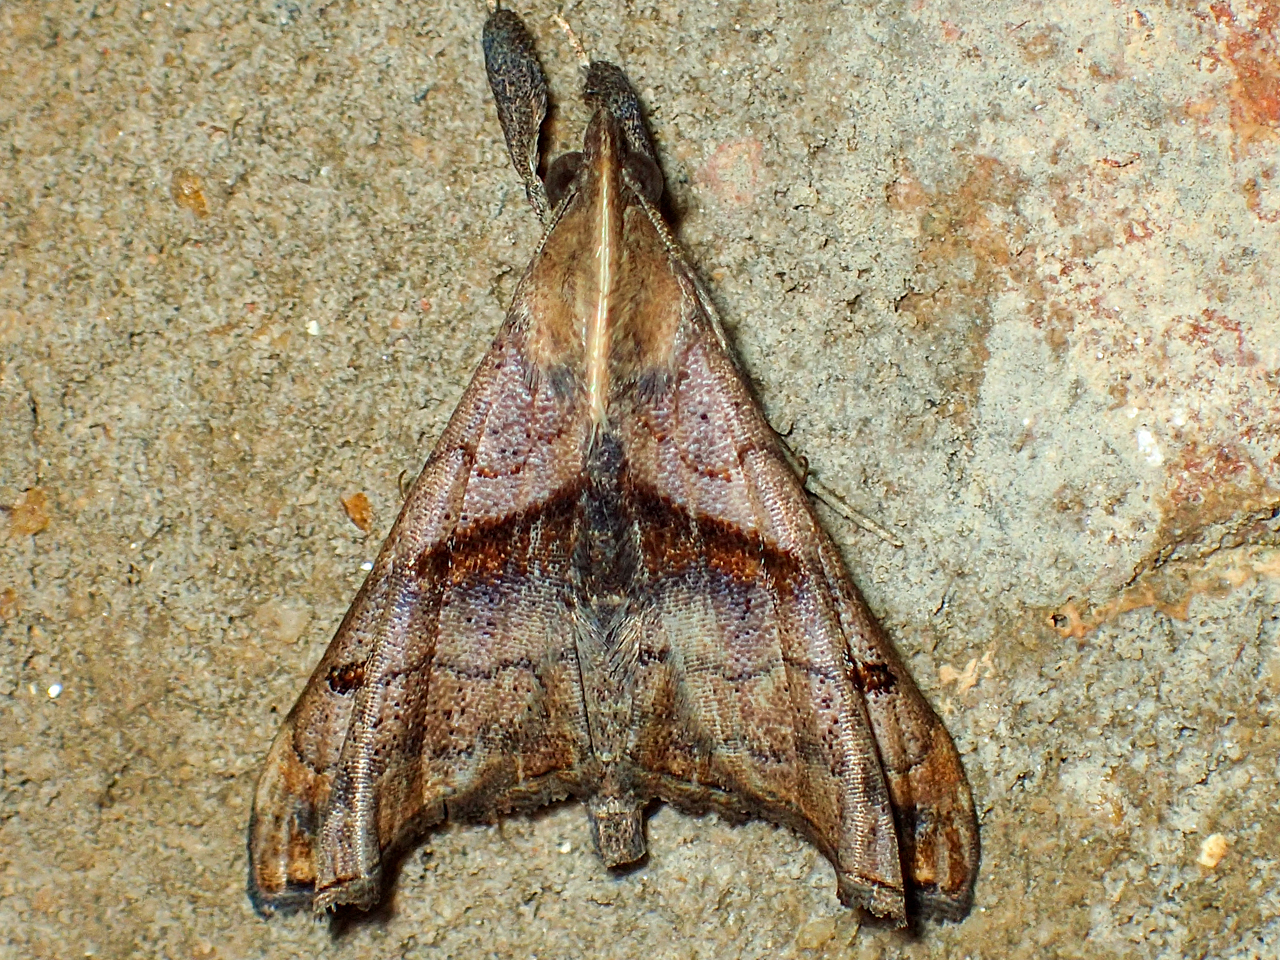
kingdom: Animalia
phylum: Arthropoda
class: Insecta
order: Lepidoptera
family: Erebidae
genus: Palthis
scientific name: Palthis angulalis
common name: Dark-spotted palthis moth
